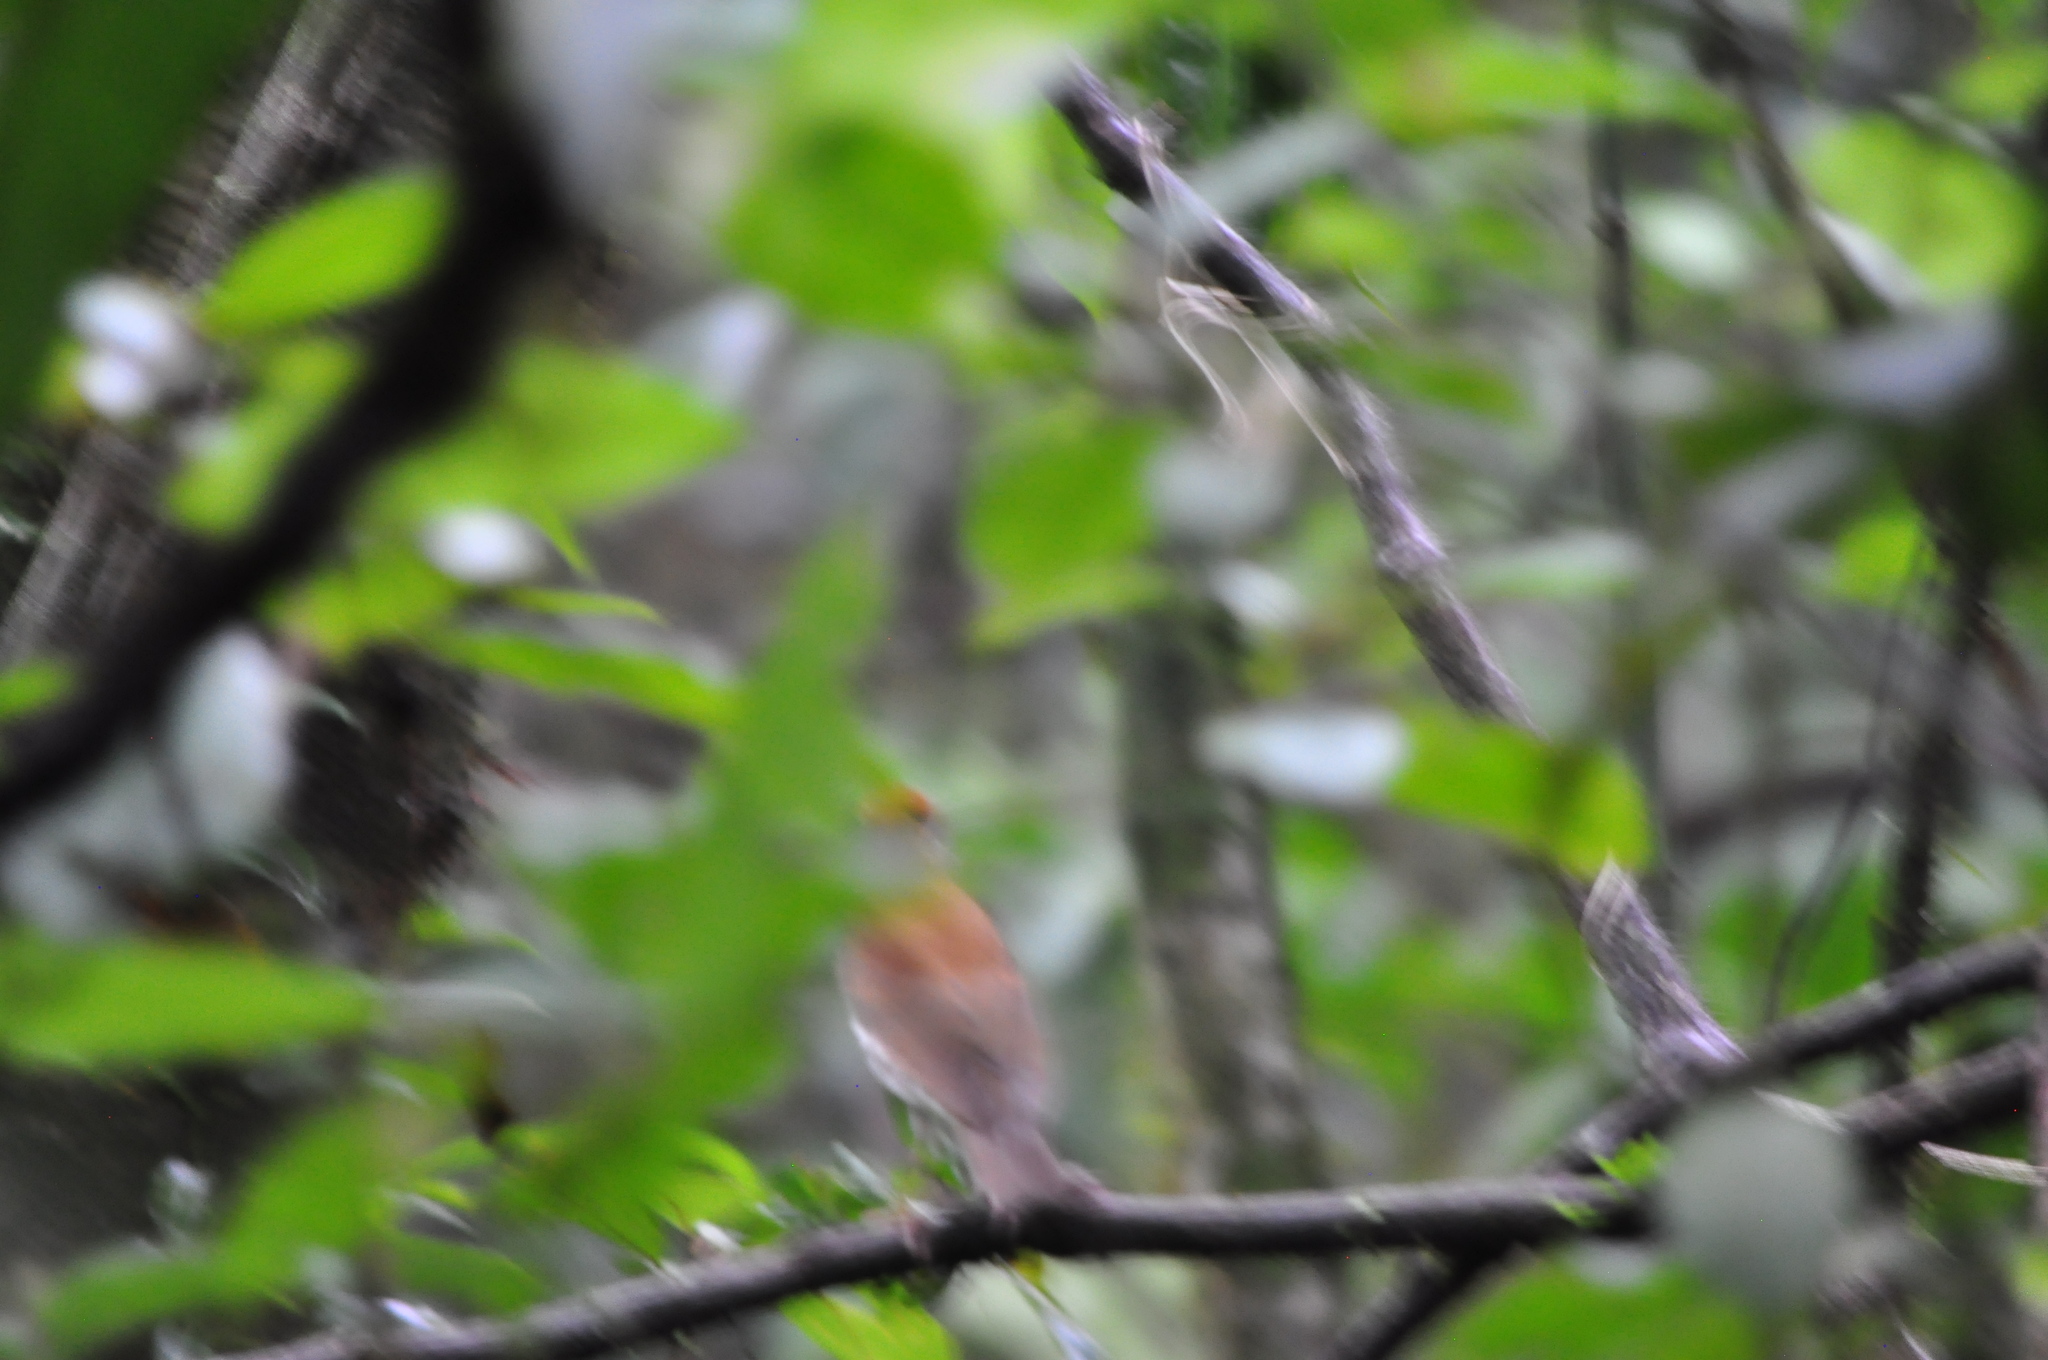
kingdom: Animalia
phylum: Chordata
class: Aves
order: Passeriformes
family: Turdidae
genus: Hylocichla
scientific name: Hylocichla mustelina
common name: Wood thrush
